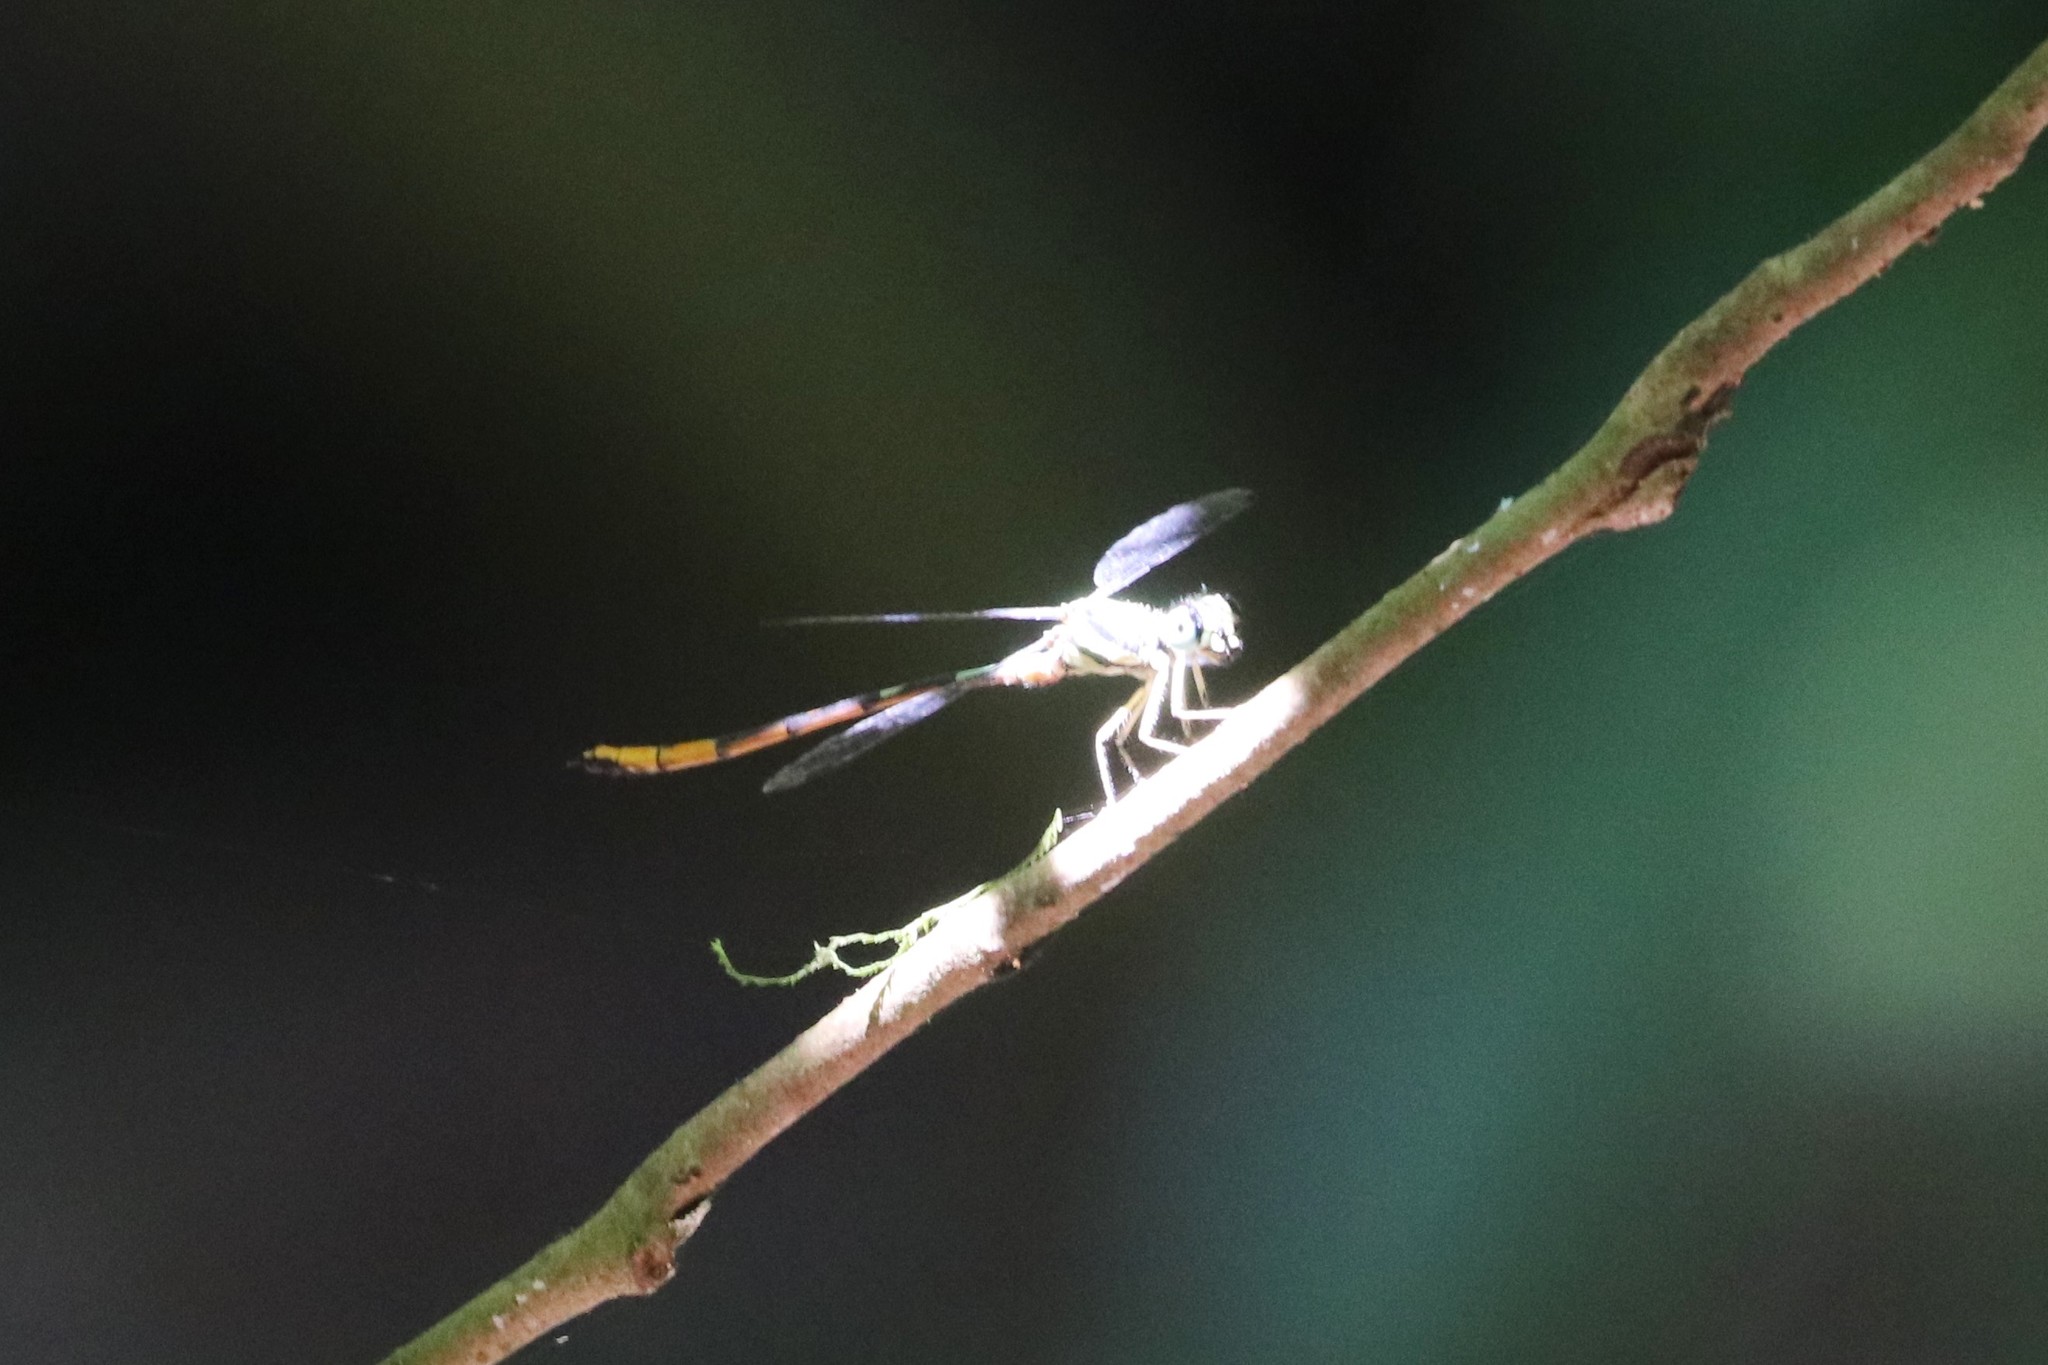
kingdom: Animalia
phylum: Arthropoda
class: Insecta
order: Odonata
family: Philosinidae
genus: Rhinagrion
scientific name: Rhinagrion viridatum
